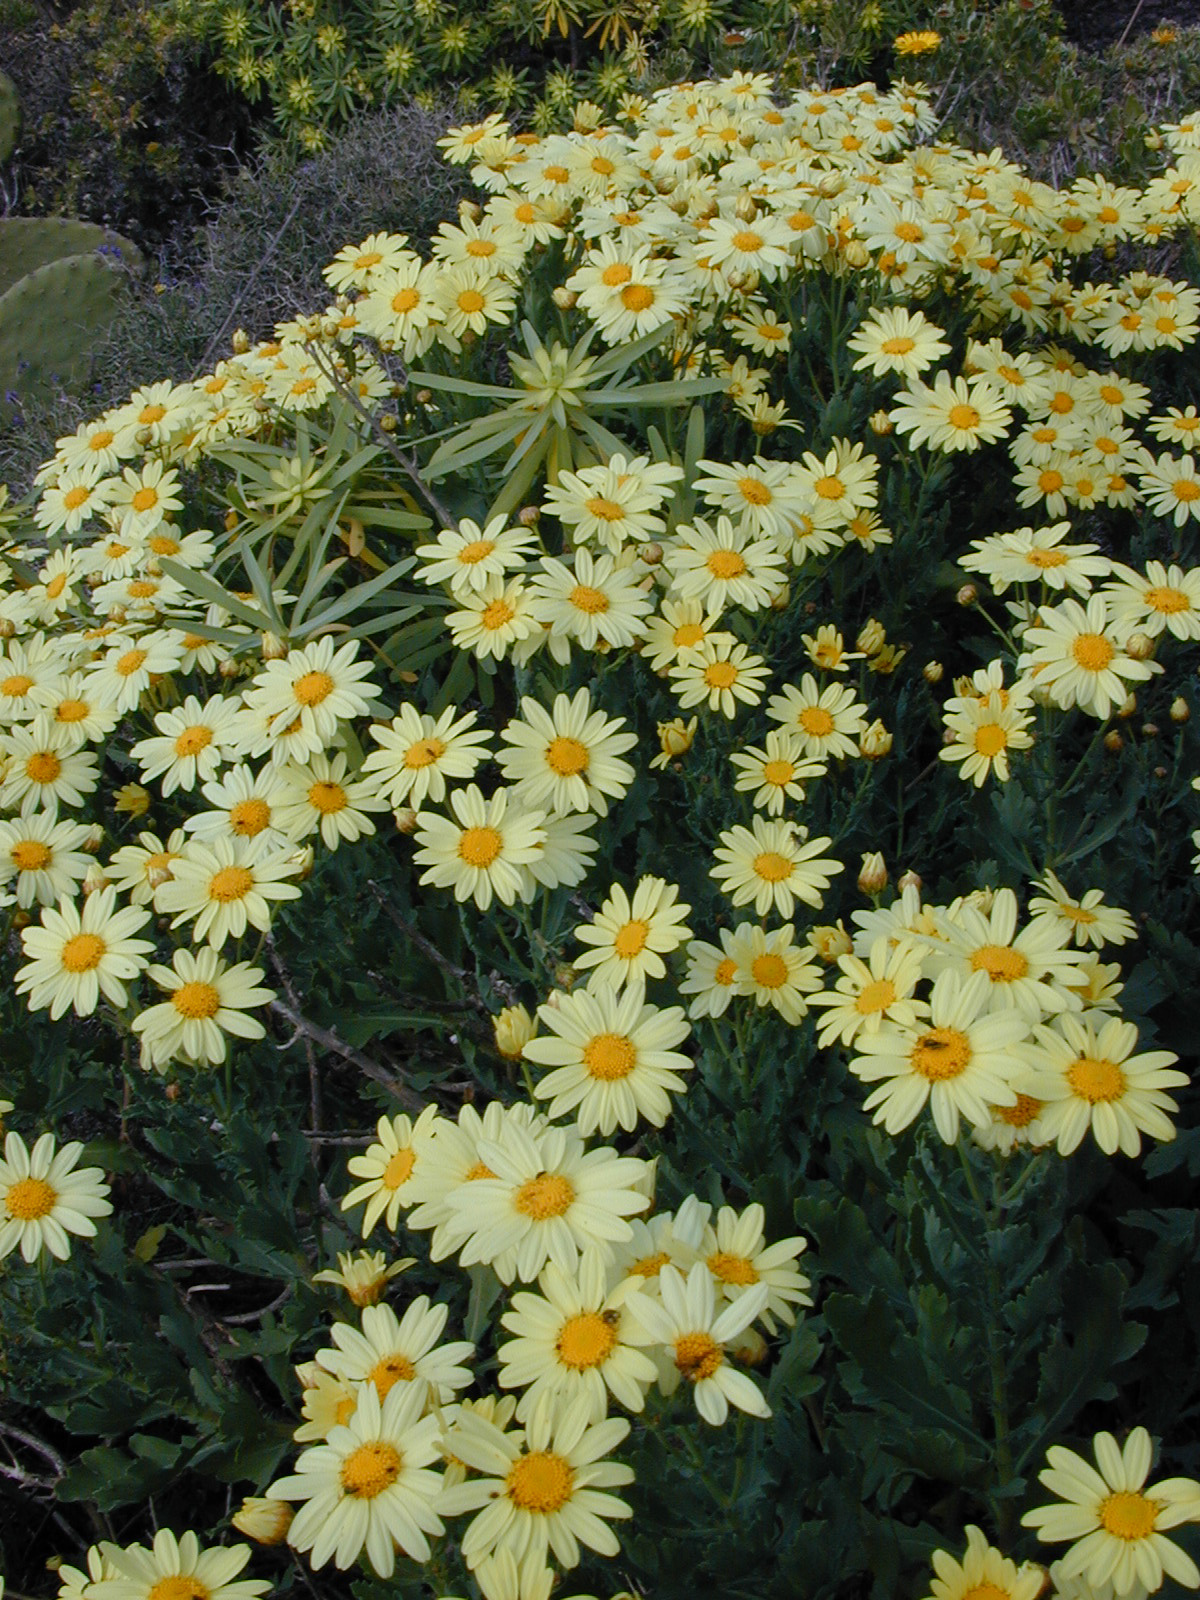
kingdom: Plantae
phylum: Tracheophyta
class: Magnoliopsida
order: Asterales
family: Asteraceae
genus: Argyranthemum
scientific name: Argyranthemum maderense
